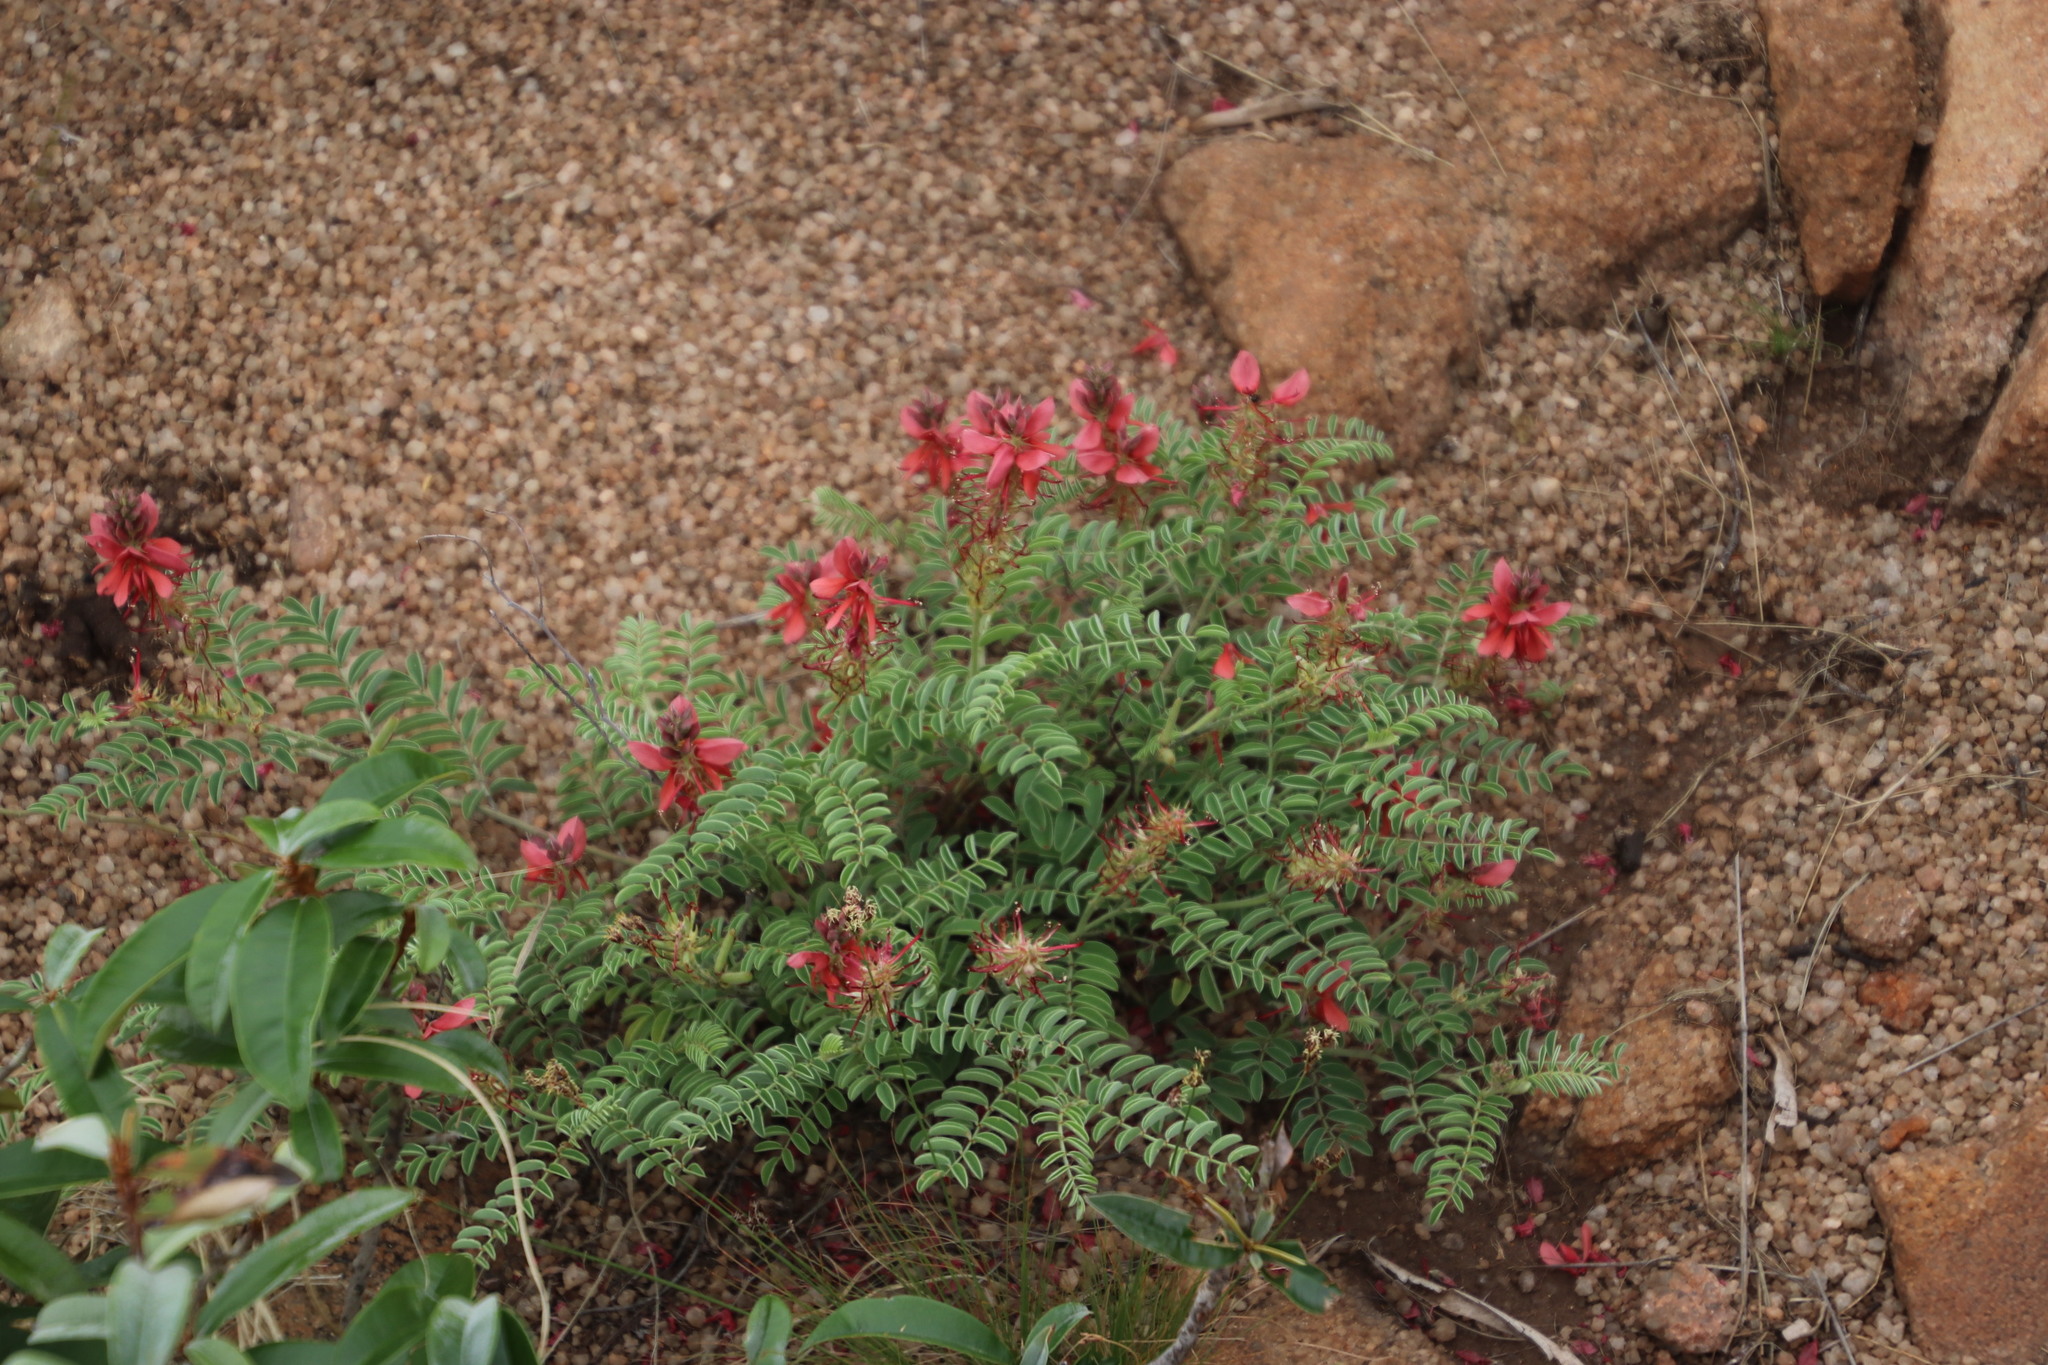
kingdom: Plantae
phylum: Tracheophyta
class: Magnoliopsida
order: Fabales
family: Fabaceae
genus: Indigofera
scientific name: Indigofera comosa
